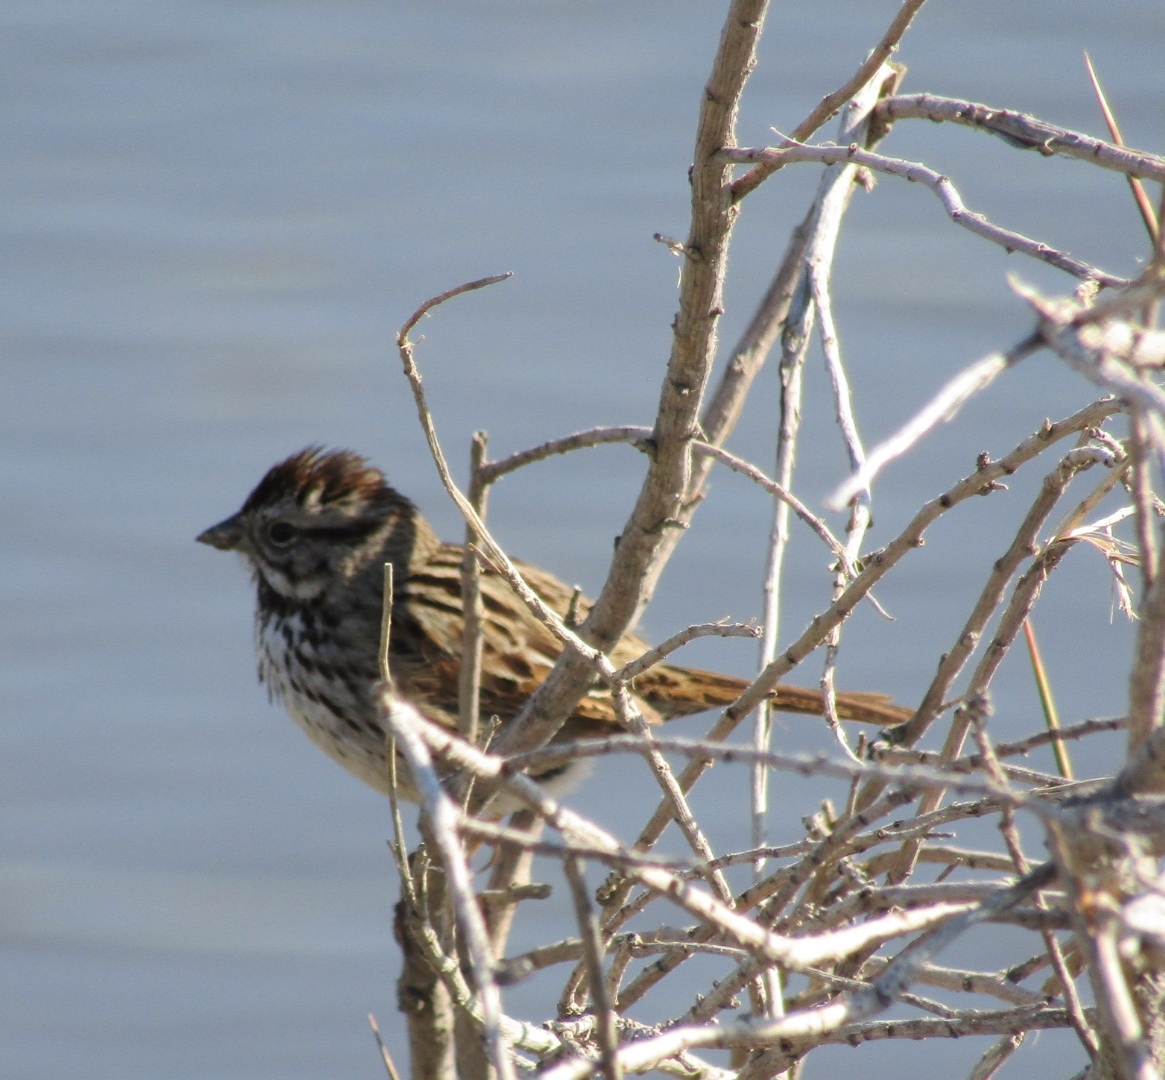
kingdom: Animalia
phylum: Chordata
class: Aves
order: Passeriformes
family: Passerellidae
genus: Melospiza
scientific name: Melospiza melodia
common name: Song sparrow
